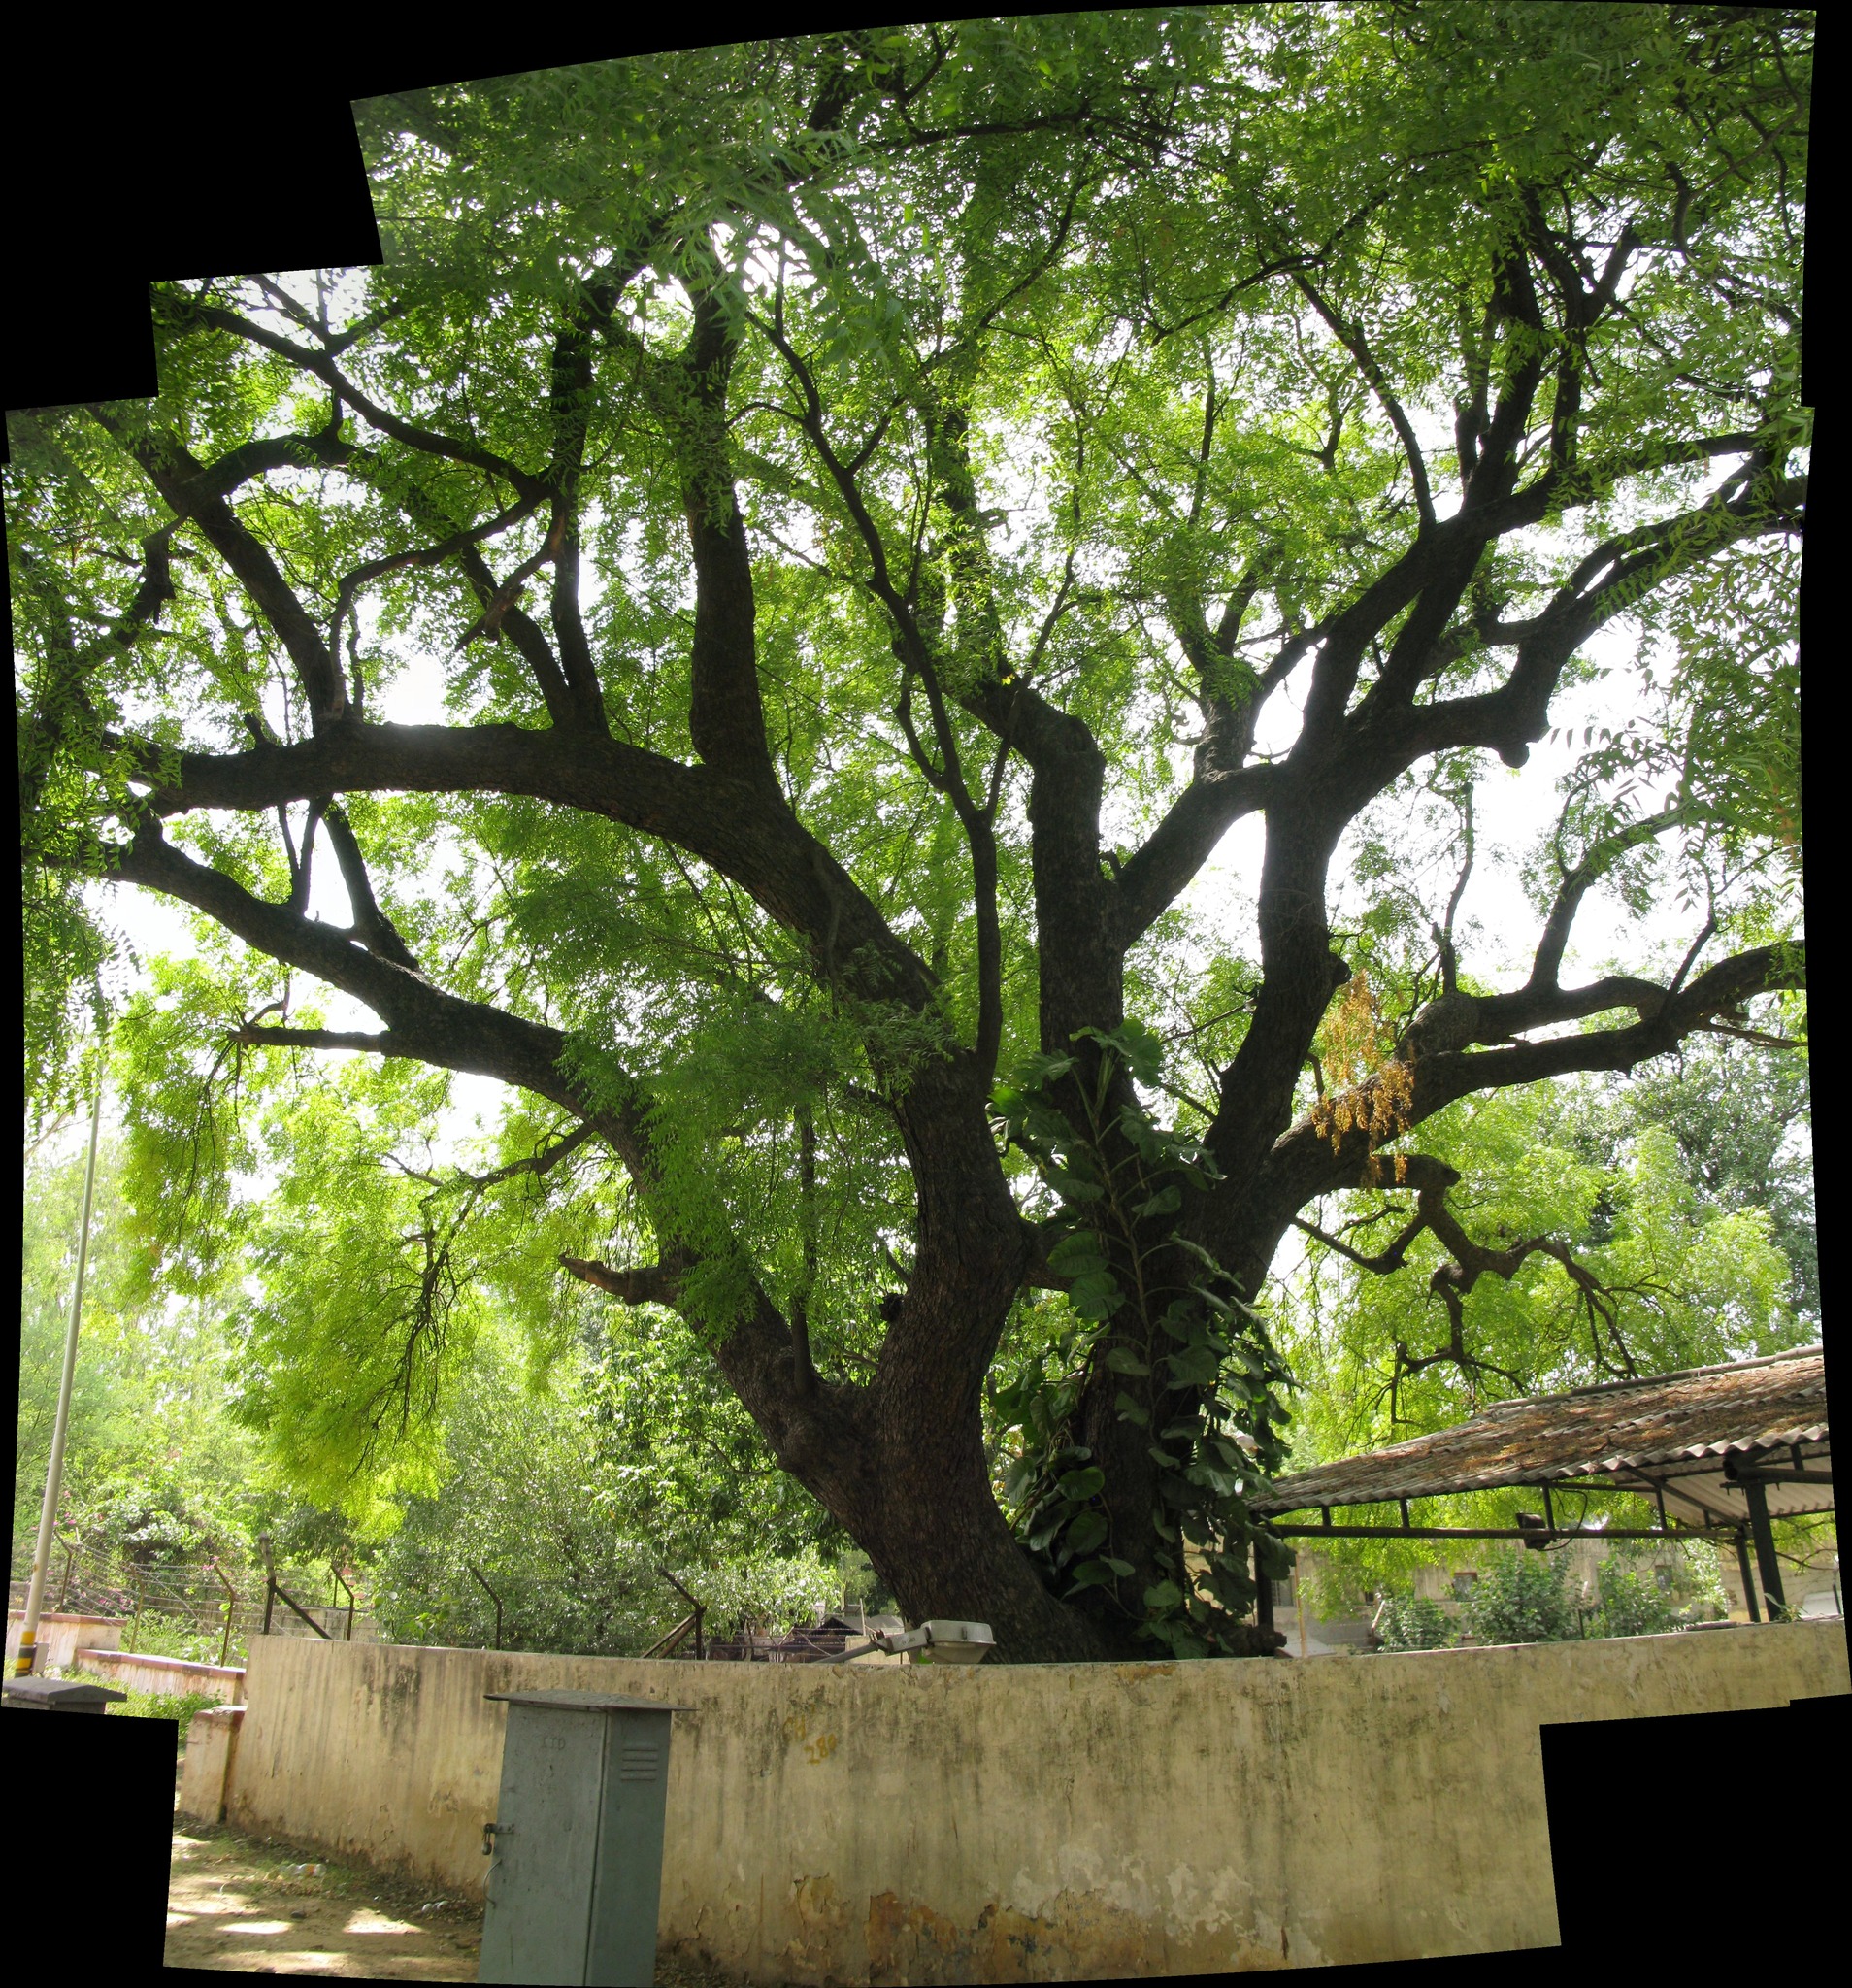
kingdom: Plantae
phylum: Tracheophyta
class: Magnoliopsida
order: Sapindales
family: Meliaceae
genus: Azadirachta
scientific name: Azadirachta indica
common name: Neem
